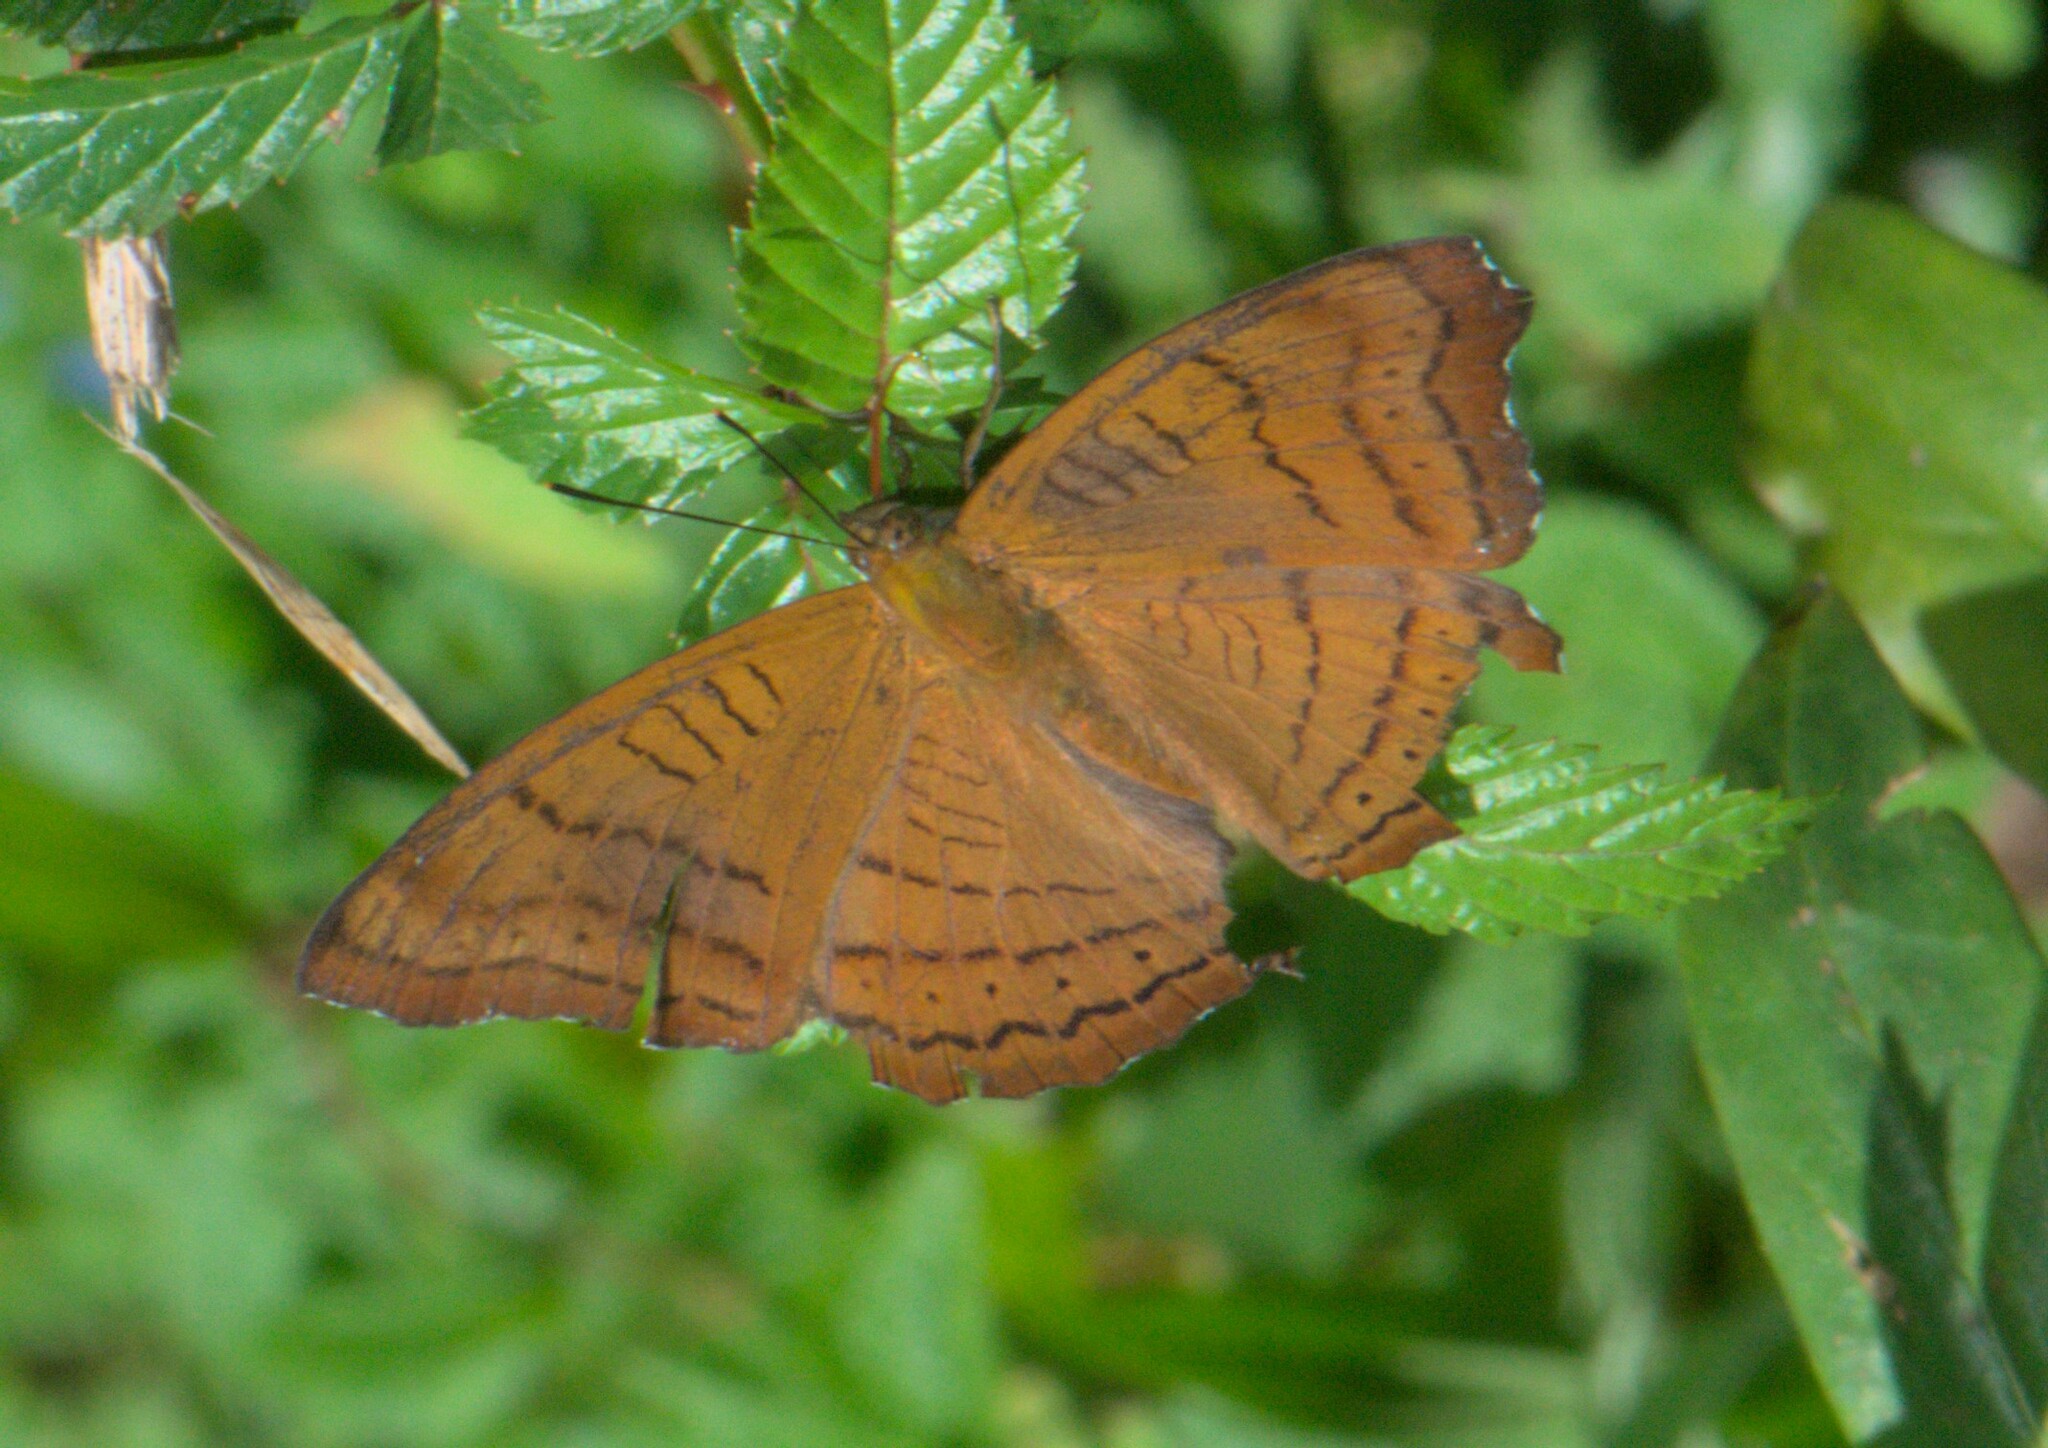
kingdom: Animalia
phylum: Arthropoda
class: Insecta
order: Lepidoptera
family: Nymphalidae
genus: Pseudergolis
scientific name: Pseudergolis wedah
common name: Tabby
